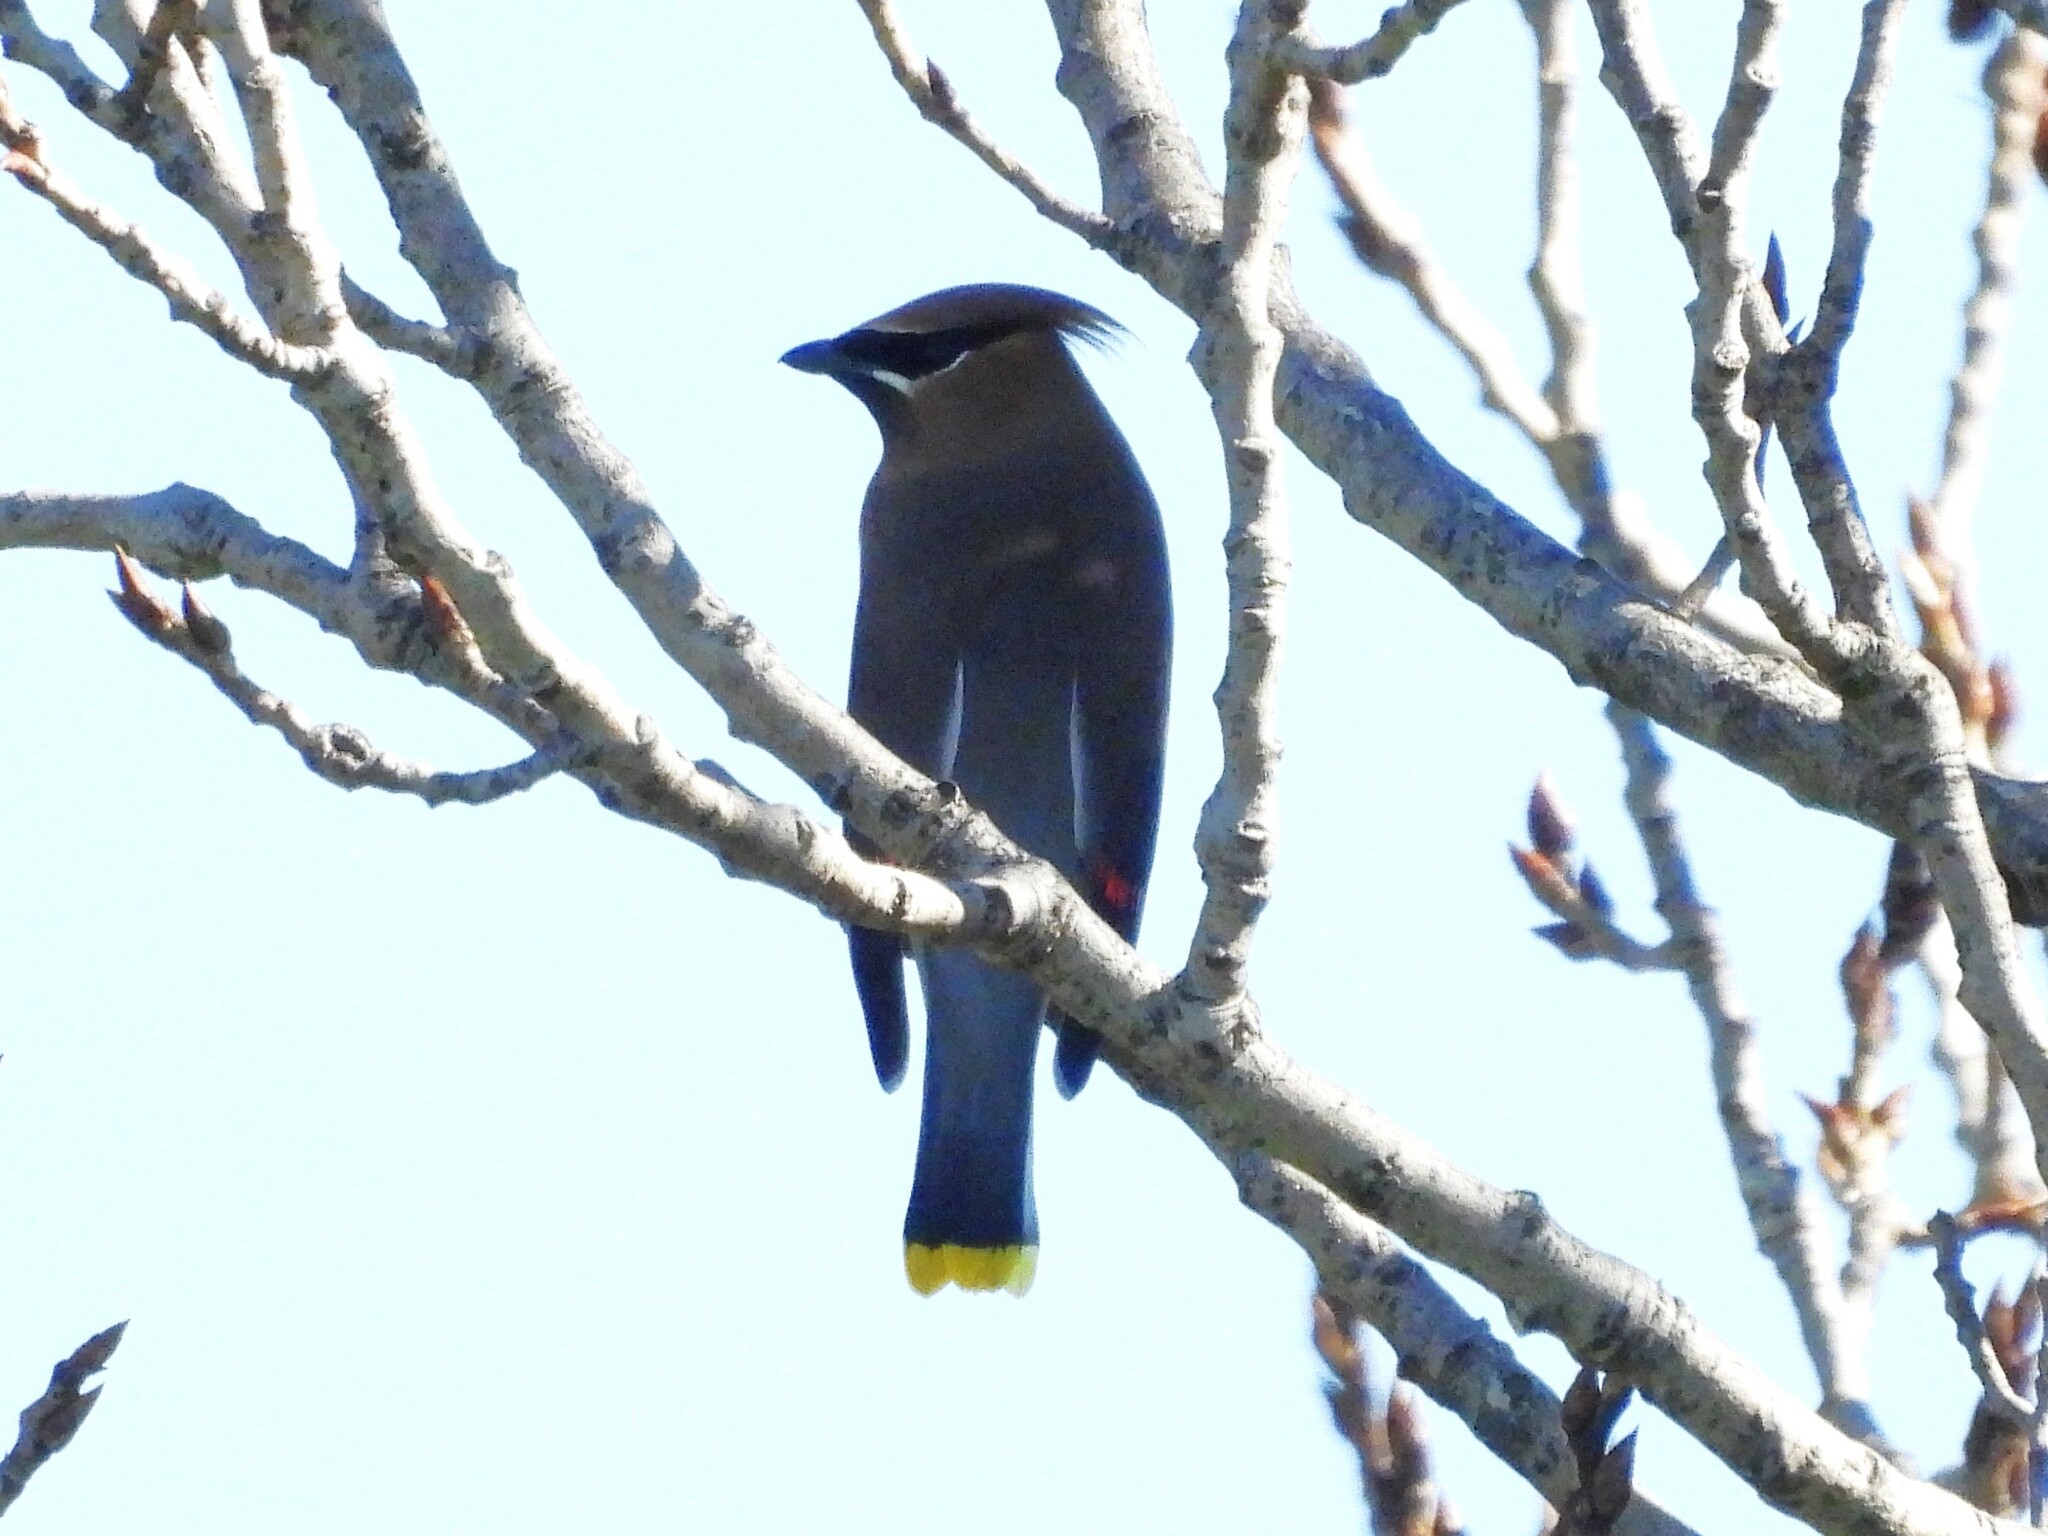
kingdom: Animalia
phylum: Chordata
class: Aves
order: Passeriformes
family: Bombycillidae
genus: Bombycilla
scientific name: Bombycilla cedrorum
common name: Cedar waxwing
